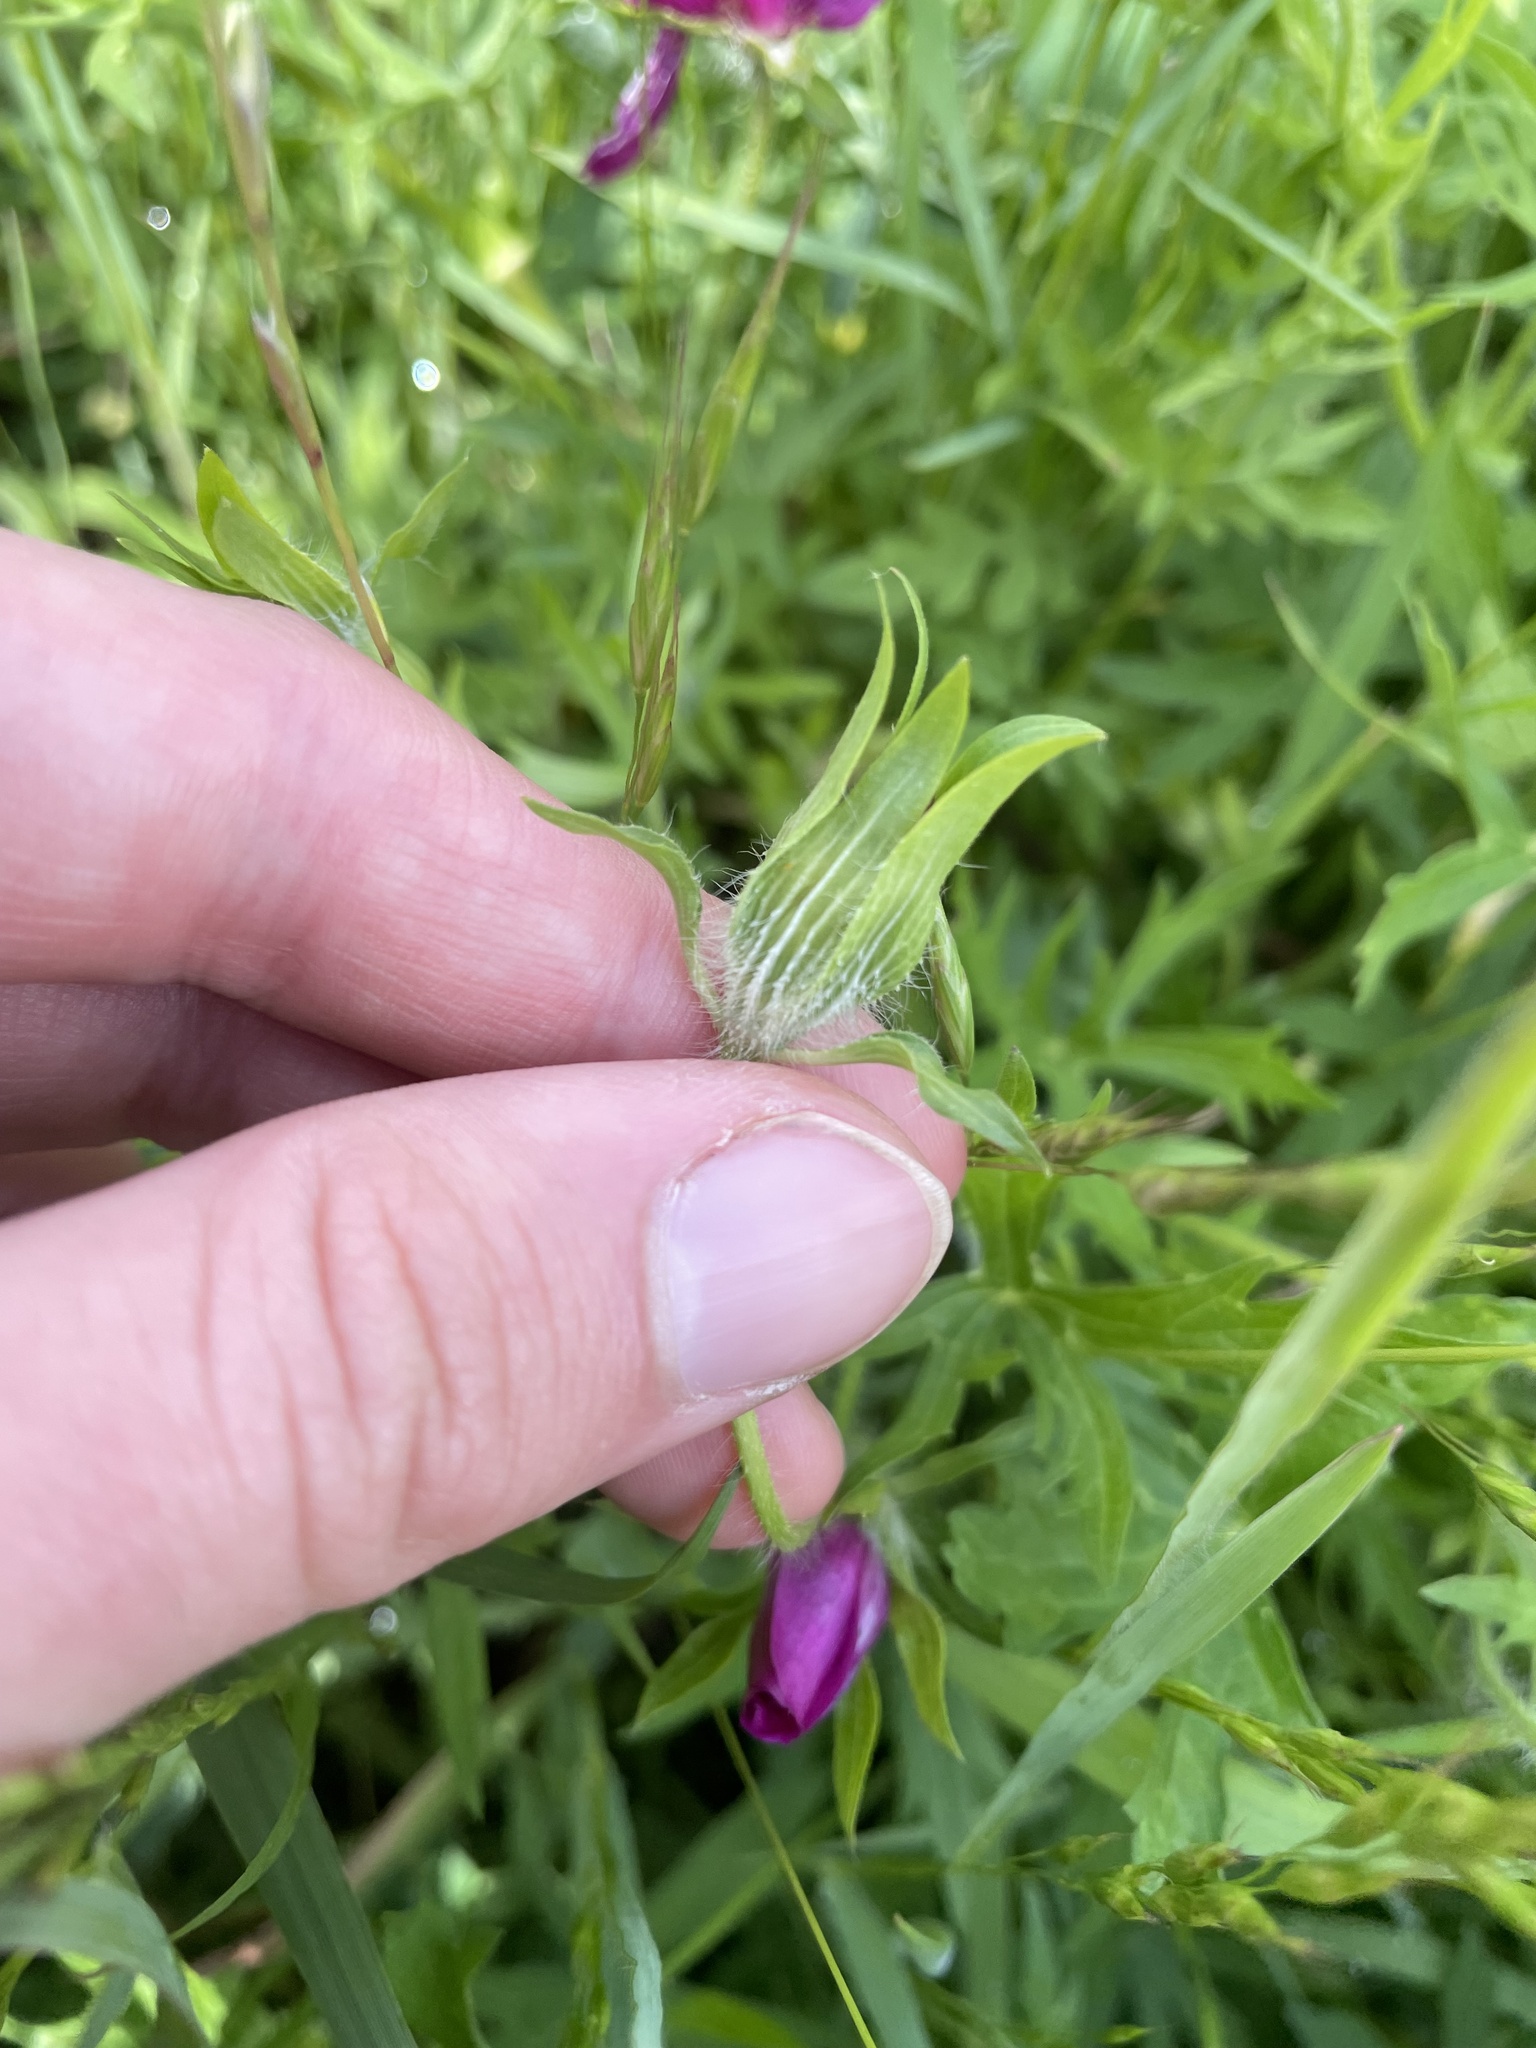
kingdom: Plantae
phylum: Tracheophyta
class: Magnoliopsida
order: Malvales
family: Malvaceae
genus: Callirhoe
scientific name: Callirhoe involucrata
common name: Purple poppy-mallow
